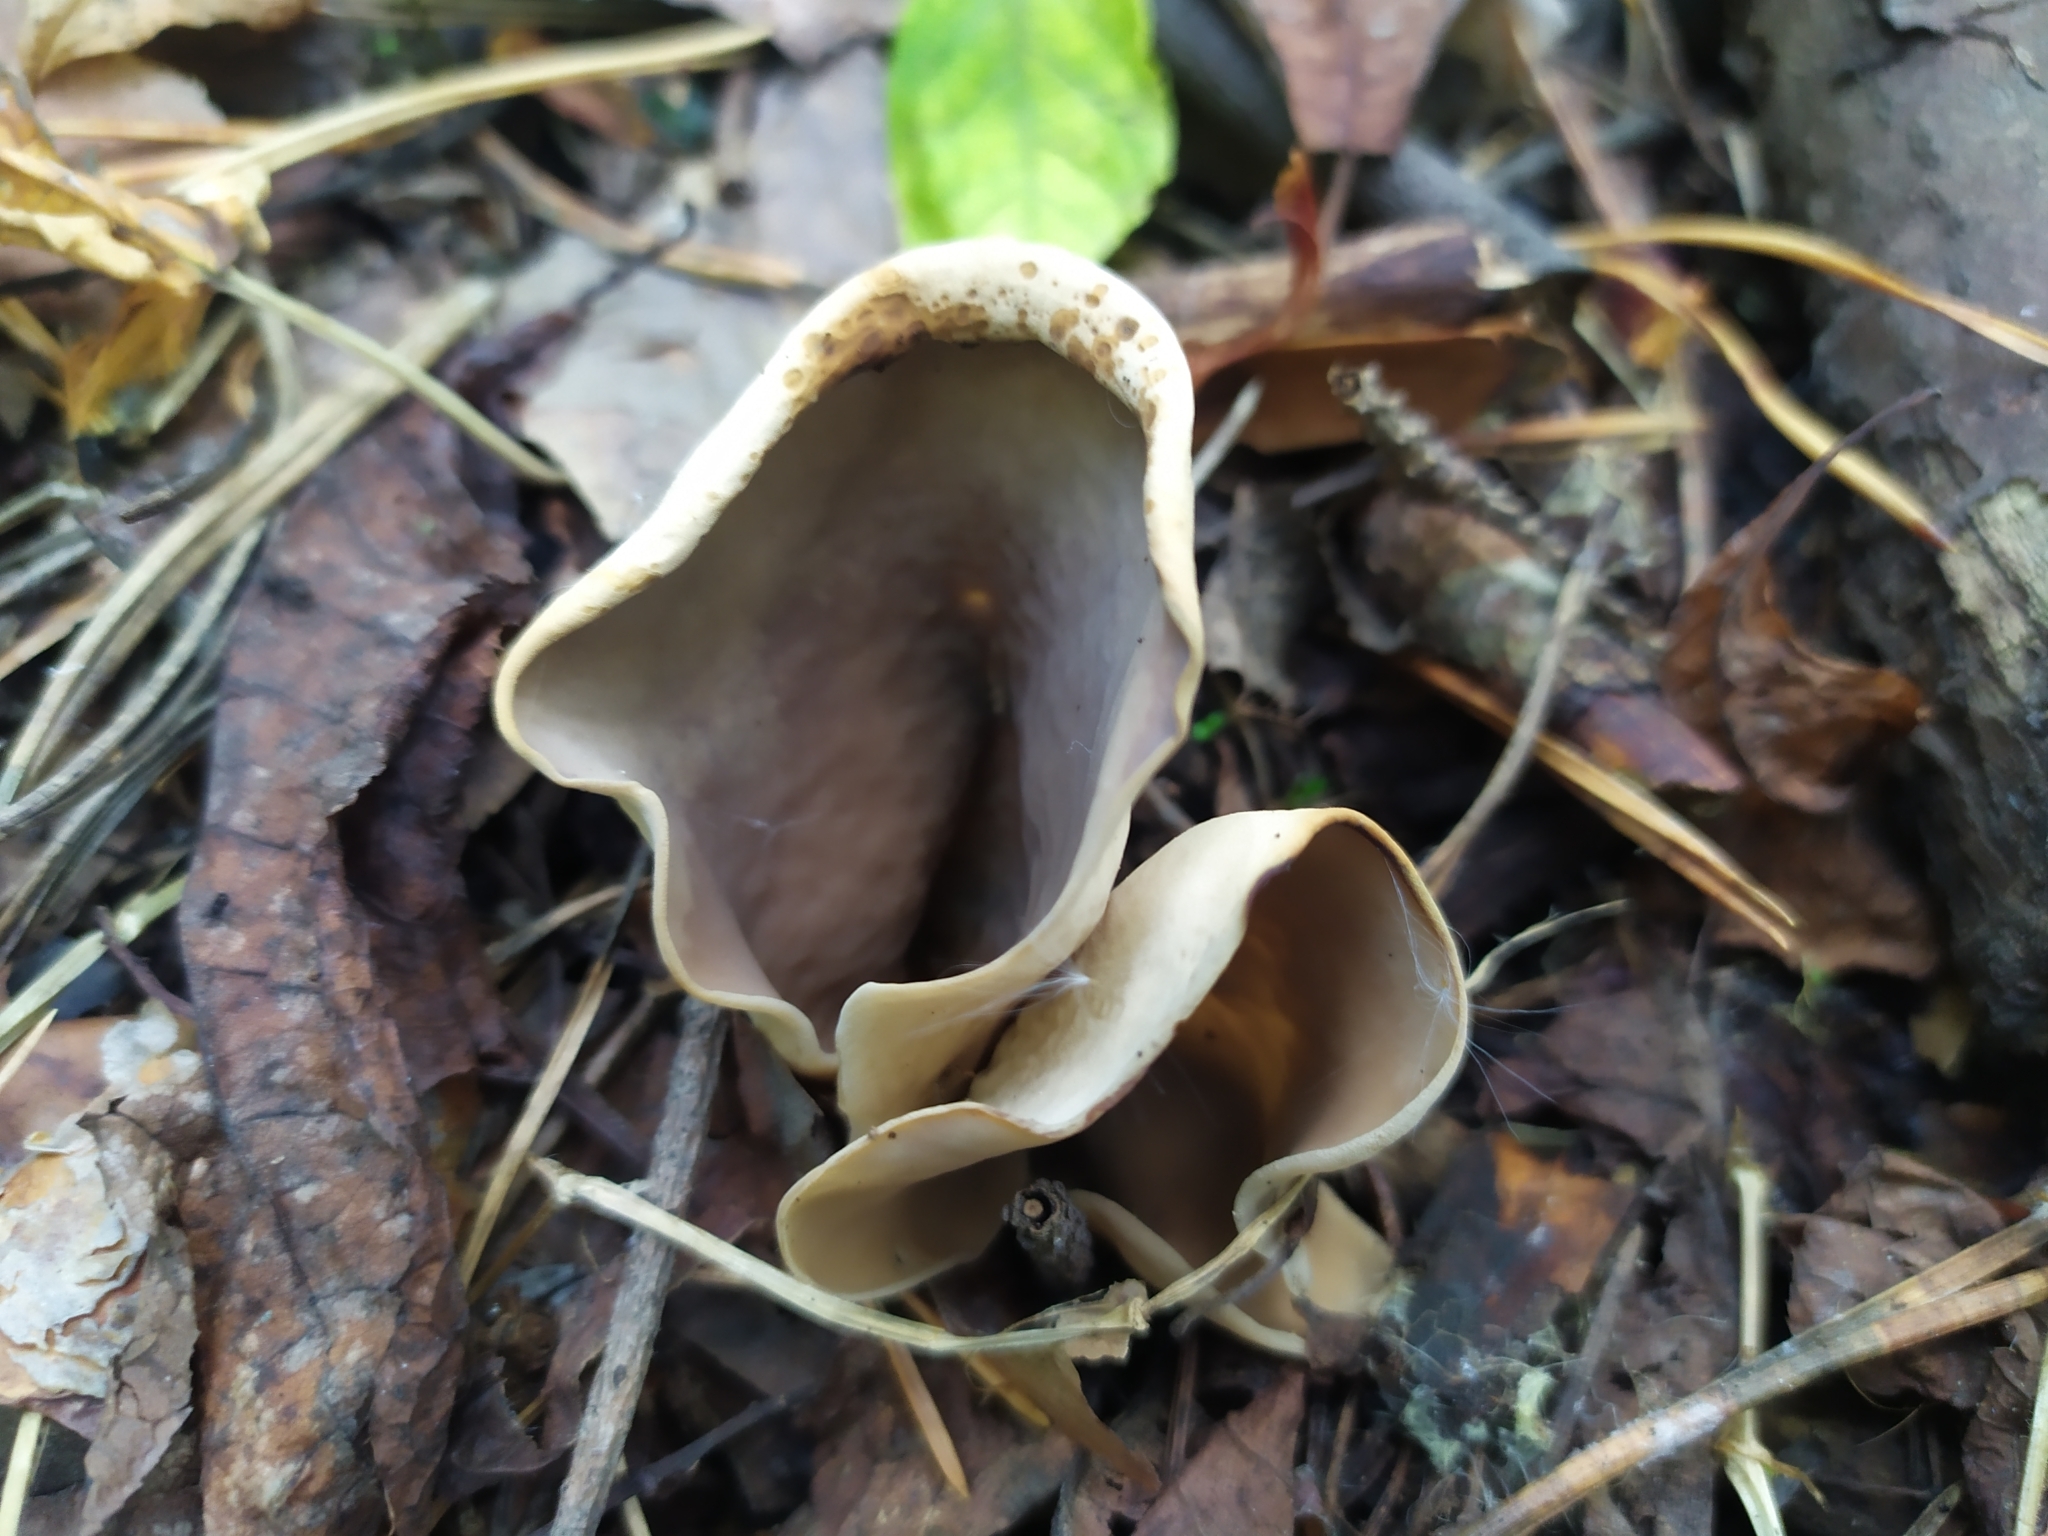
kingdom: Fungi
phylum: Ascomycota
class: Pezizomycetes
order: Pezizales
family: Otideaceae
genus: Otidea
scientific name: Otidea alutacea
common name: Tan ear
